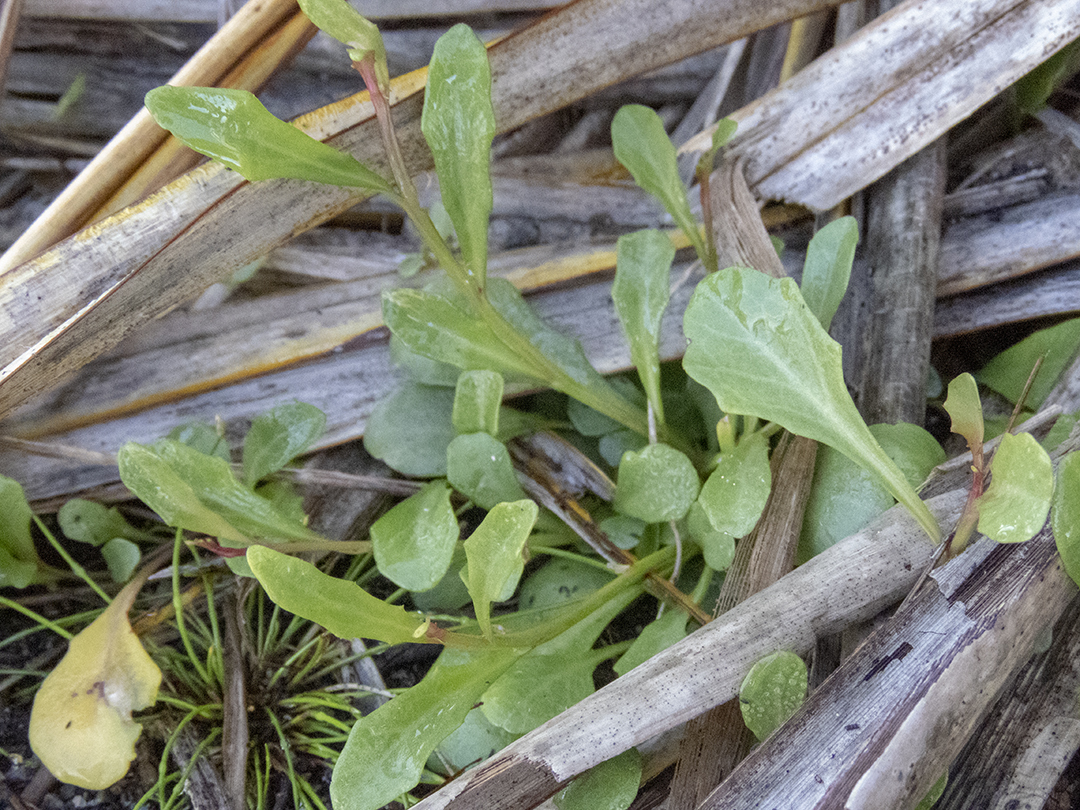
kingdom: Plantae
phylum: Tracheophyta
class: Magnoliopsida
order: Asterales
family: Campanulaceae
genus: Lobelia
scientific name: Lobelia anceps
